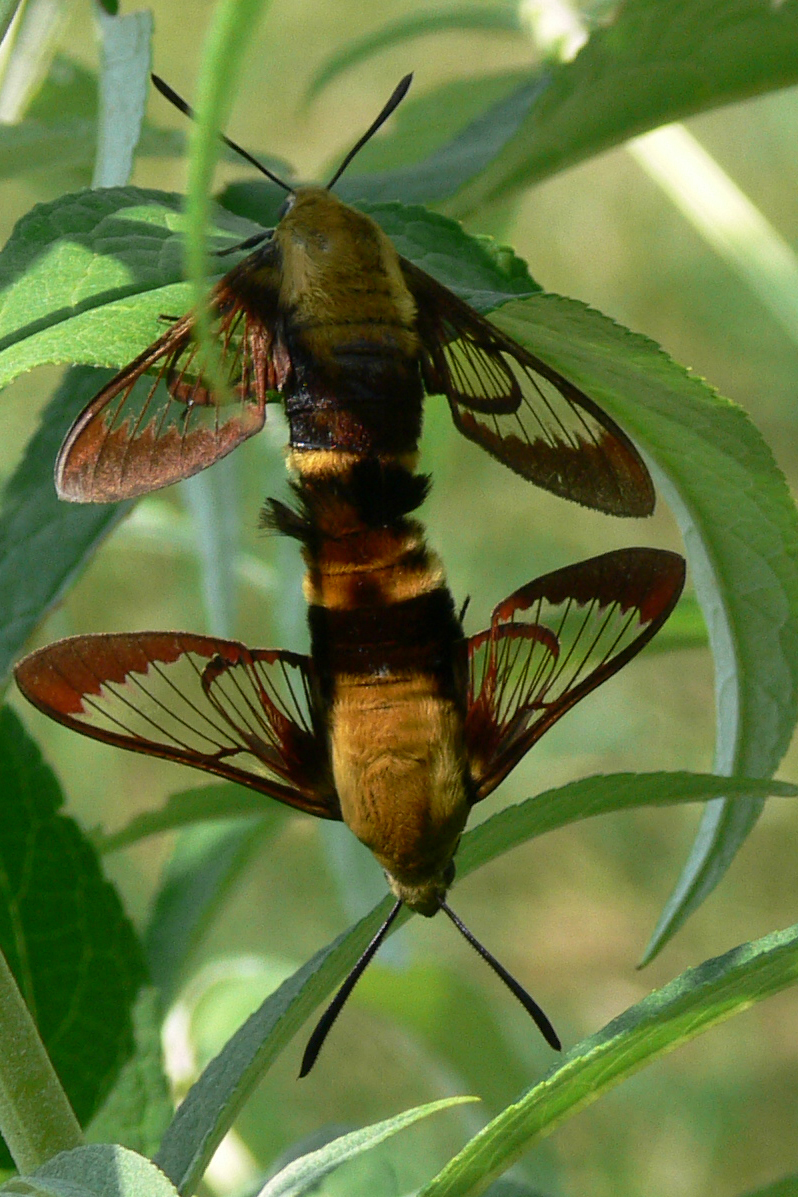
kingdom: Animalia
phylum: Arthropoda
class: Insecta
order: Lepidoptera
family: Sphingidae
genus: Hemaris
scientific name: Hemaris diffinis
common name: Bumblebee moth
